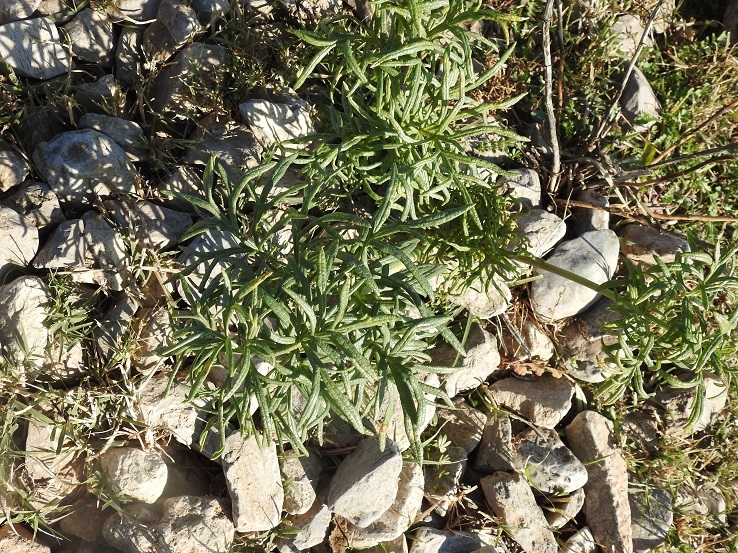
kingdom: Plantae
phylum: Tracheophyta
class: Magnoliopsida
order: Apiales
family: Apiaceae
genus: Thapsia
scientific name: Thapsia garganica
